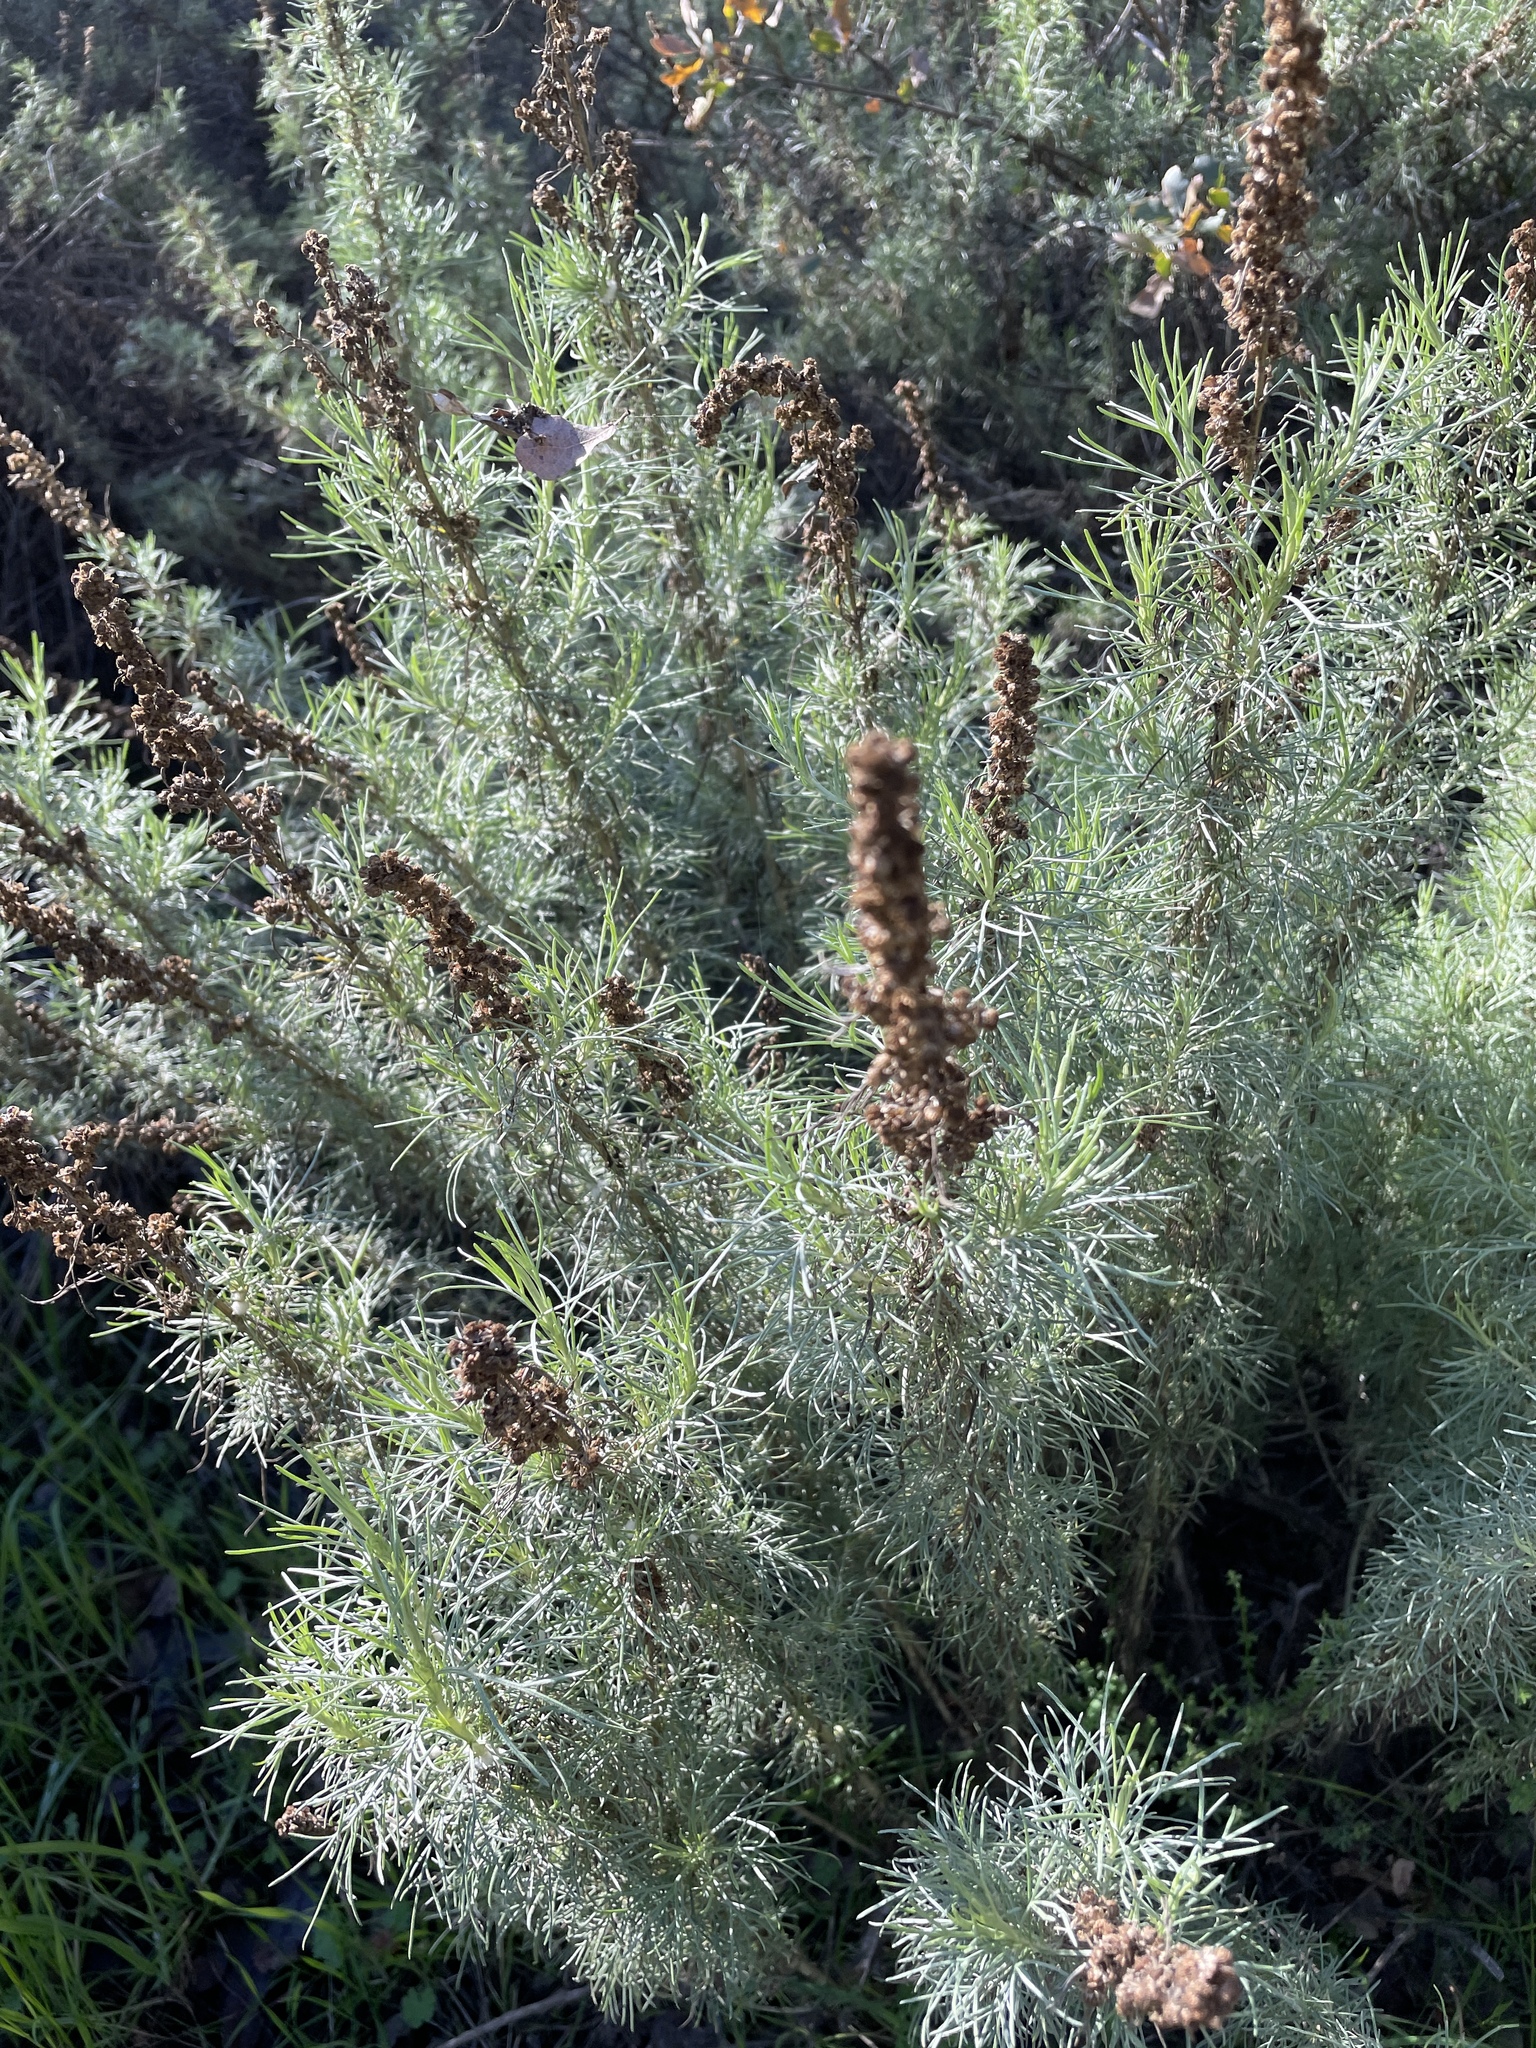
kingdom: Plantae
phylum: Tracheophyta
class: Magnoliopsida
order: Asterales
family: Asteraceae
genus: Artemisia
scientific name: Artemisia californica
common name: California sagebrush
